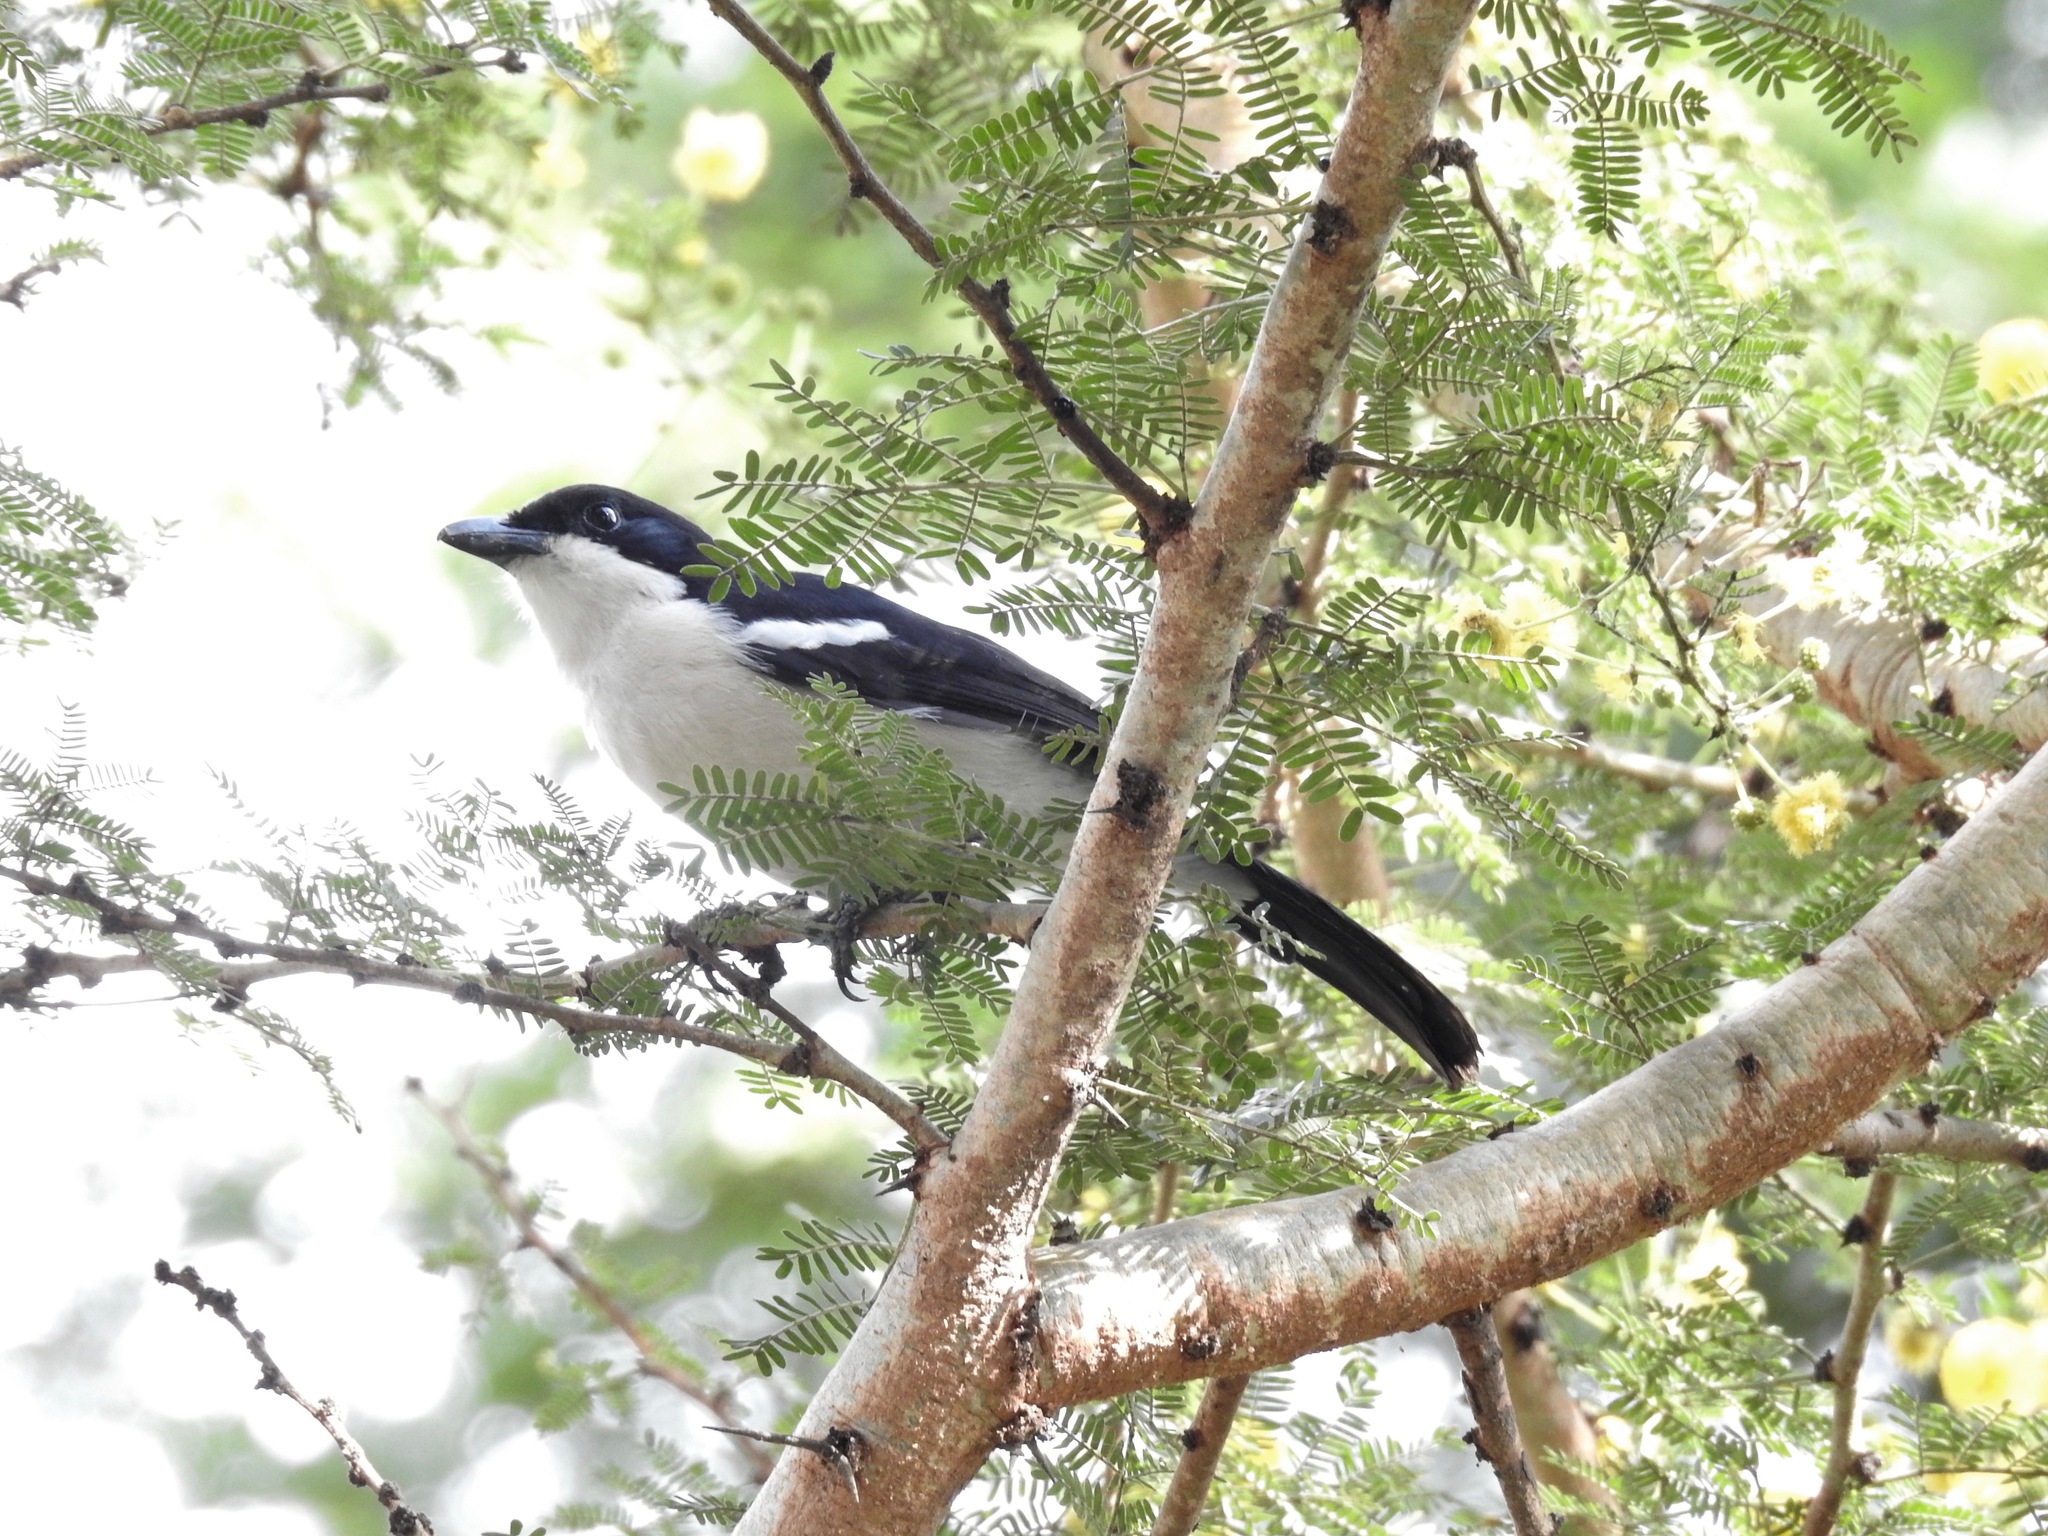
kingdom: Animalia
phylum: Chordata
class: Aves
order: Passeriformes
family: Malaconotidae
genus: Laniarius
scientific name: Laniarius major
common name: Tropical boubou
